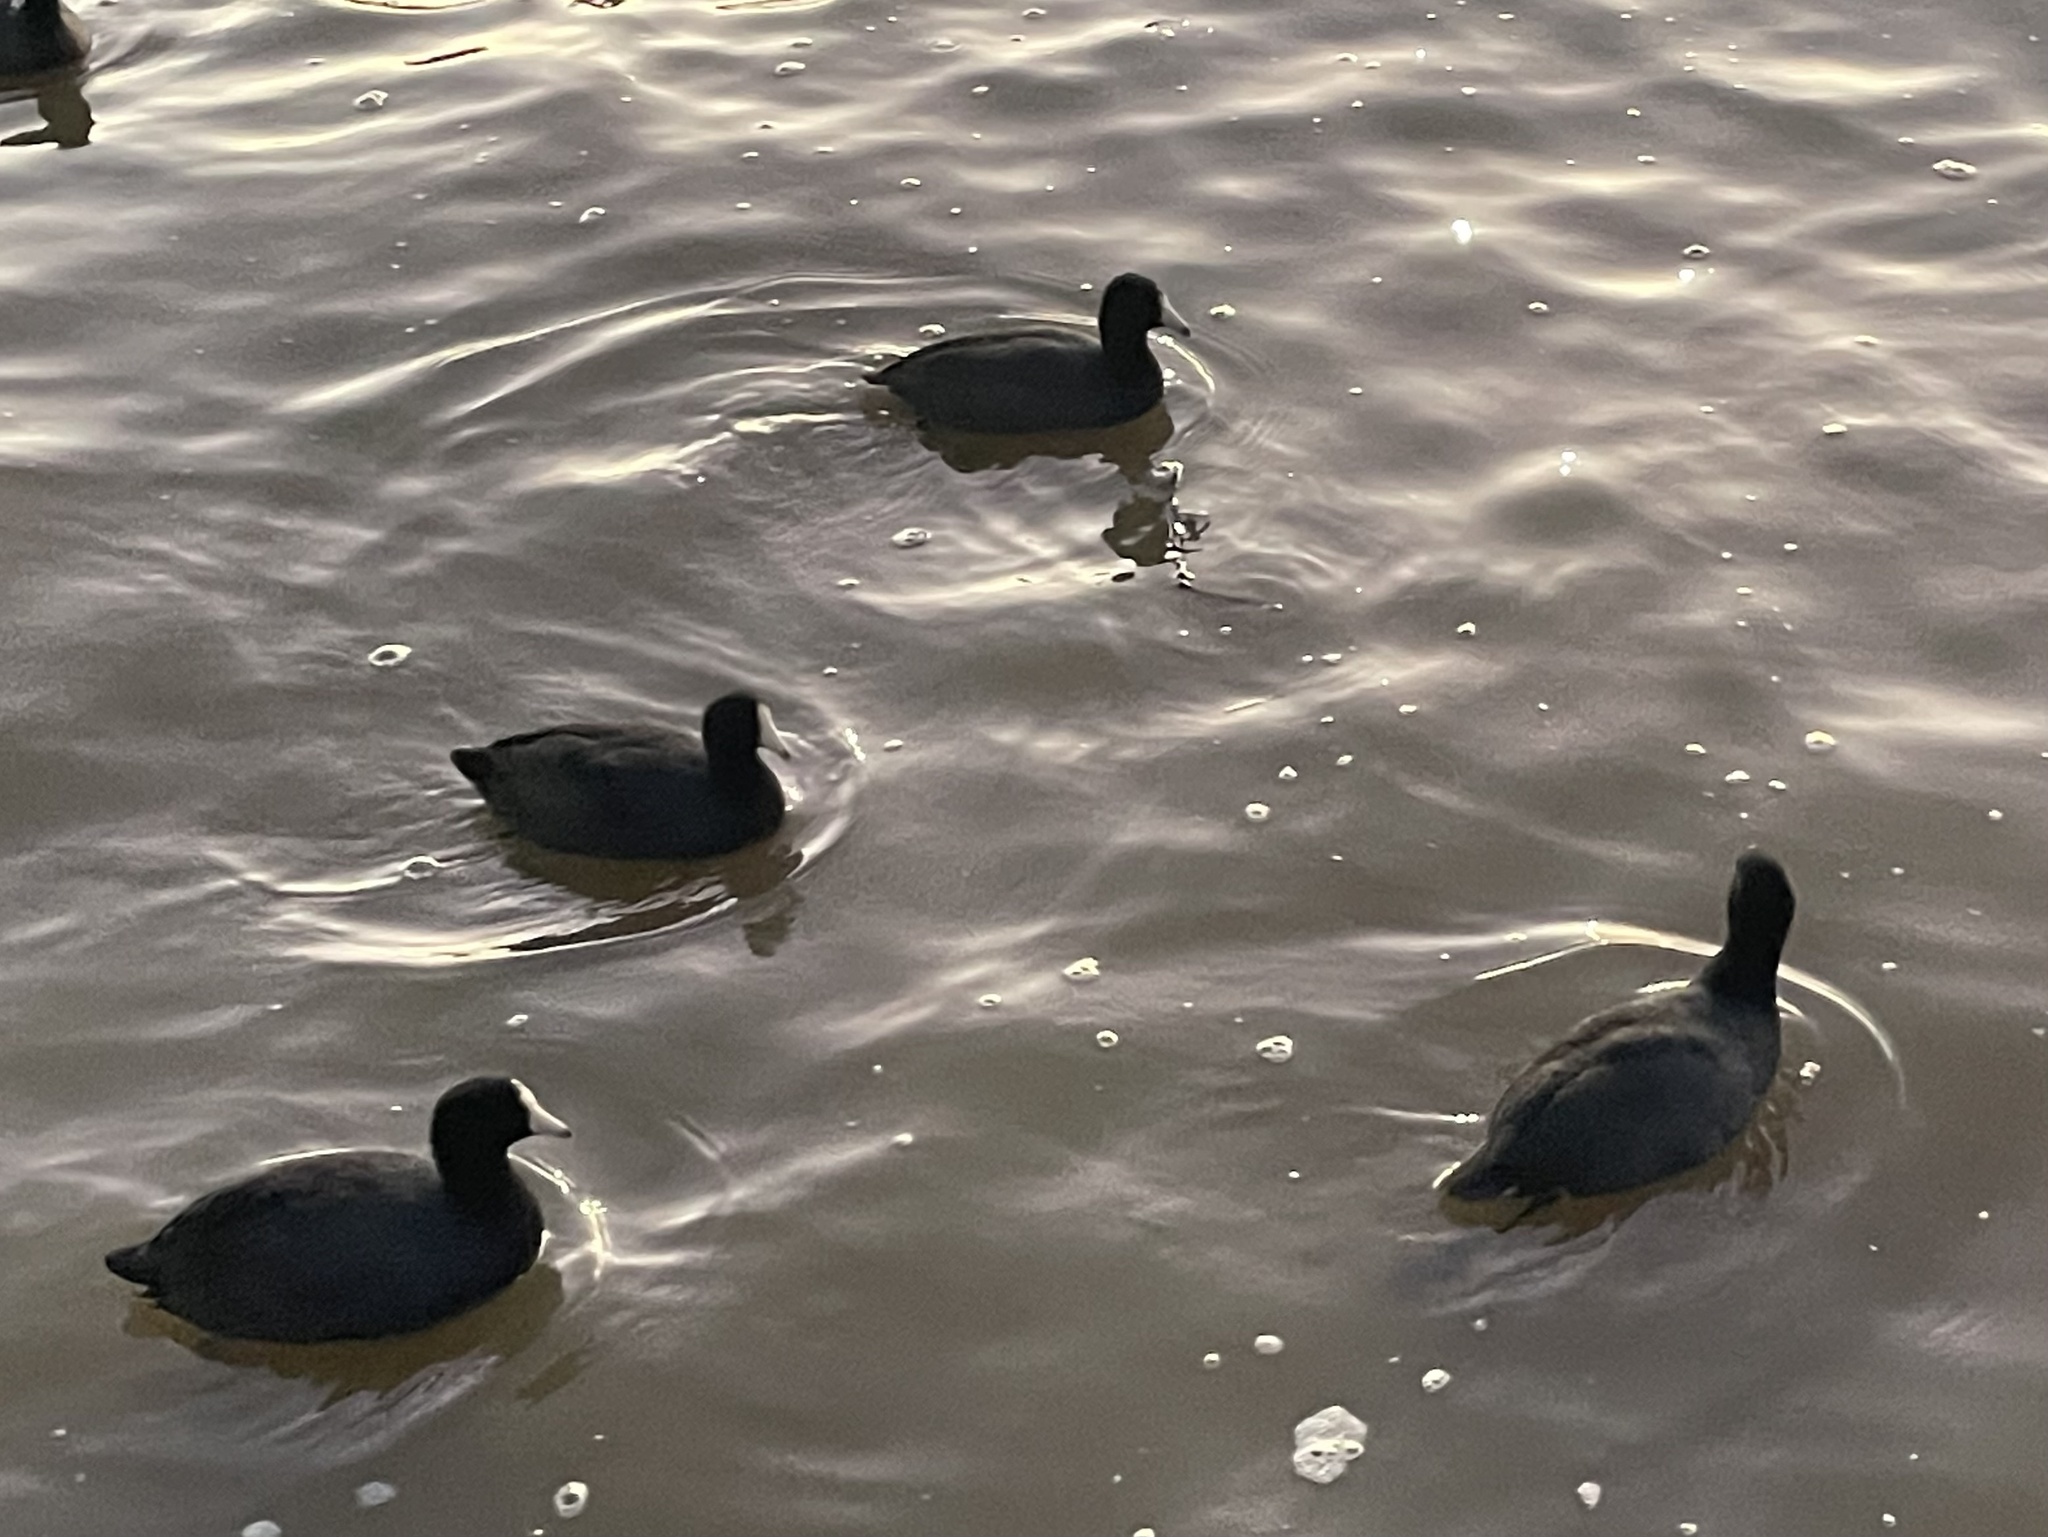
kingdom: Animalia
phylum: Chordata
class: Aves
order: Gruiformes
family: Rallidae
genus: Fulica
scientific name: Fulica americana
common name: American coot
